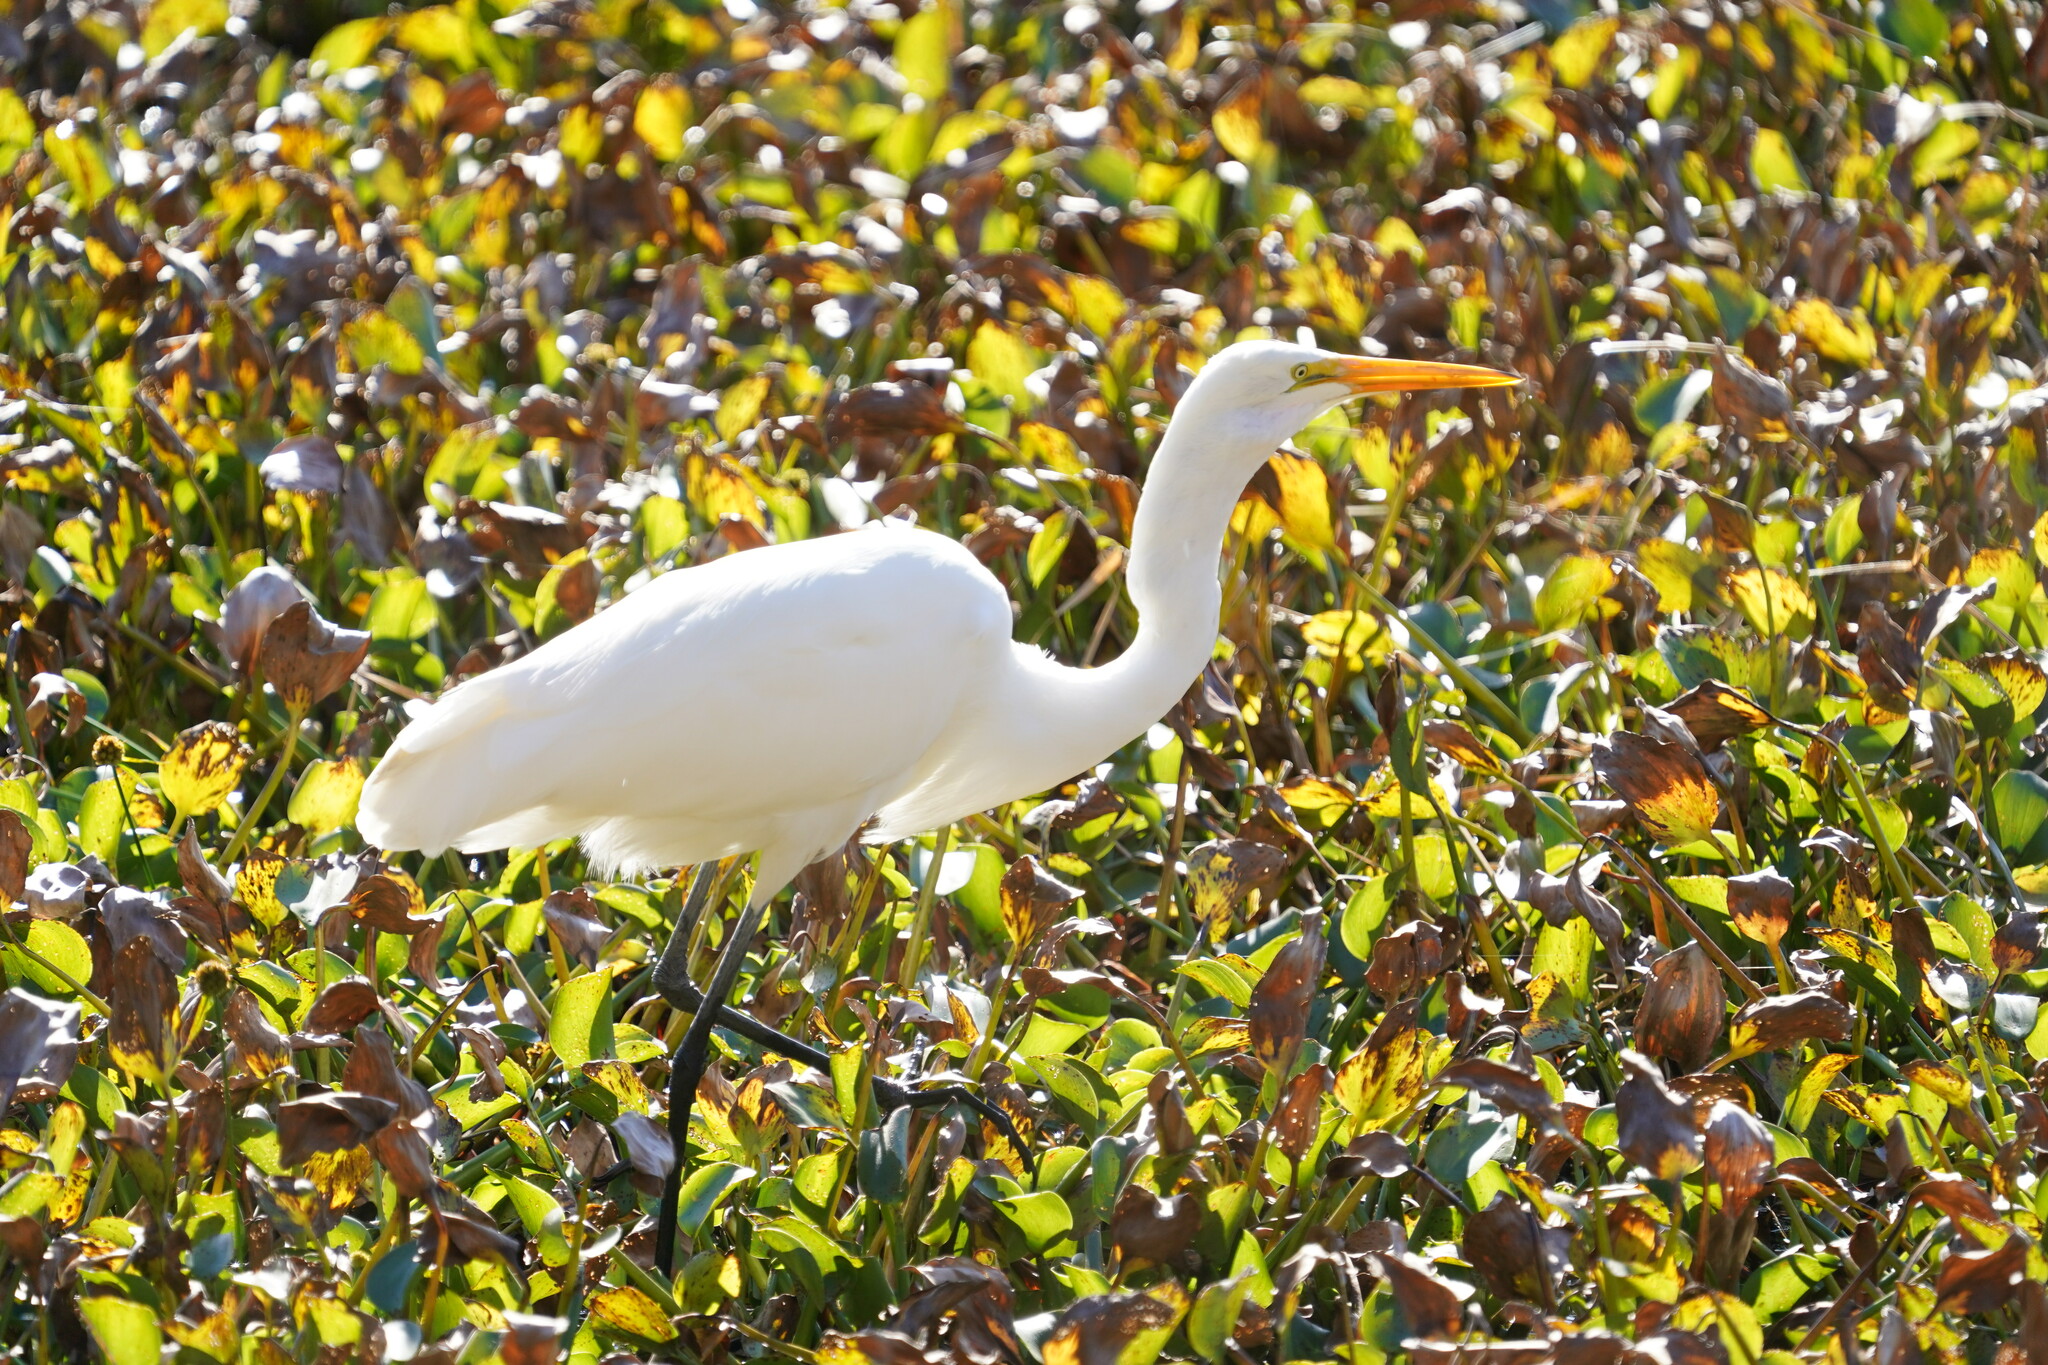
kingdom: Animalia
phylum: Chordata
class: Aves
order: Pelecaniformes
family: Ardeidae
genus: Ardea
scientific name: Ardea alba
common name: Great egret
